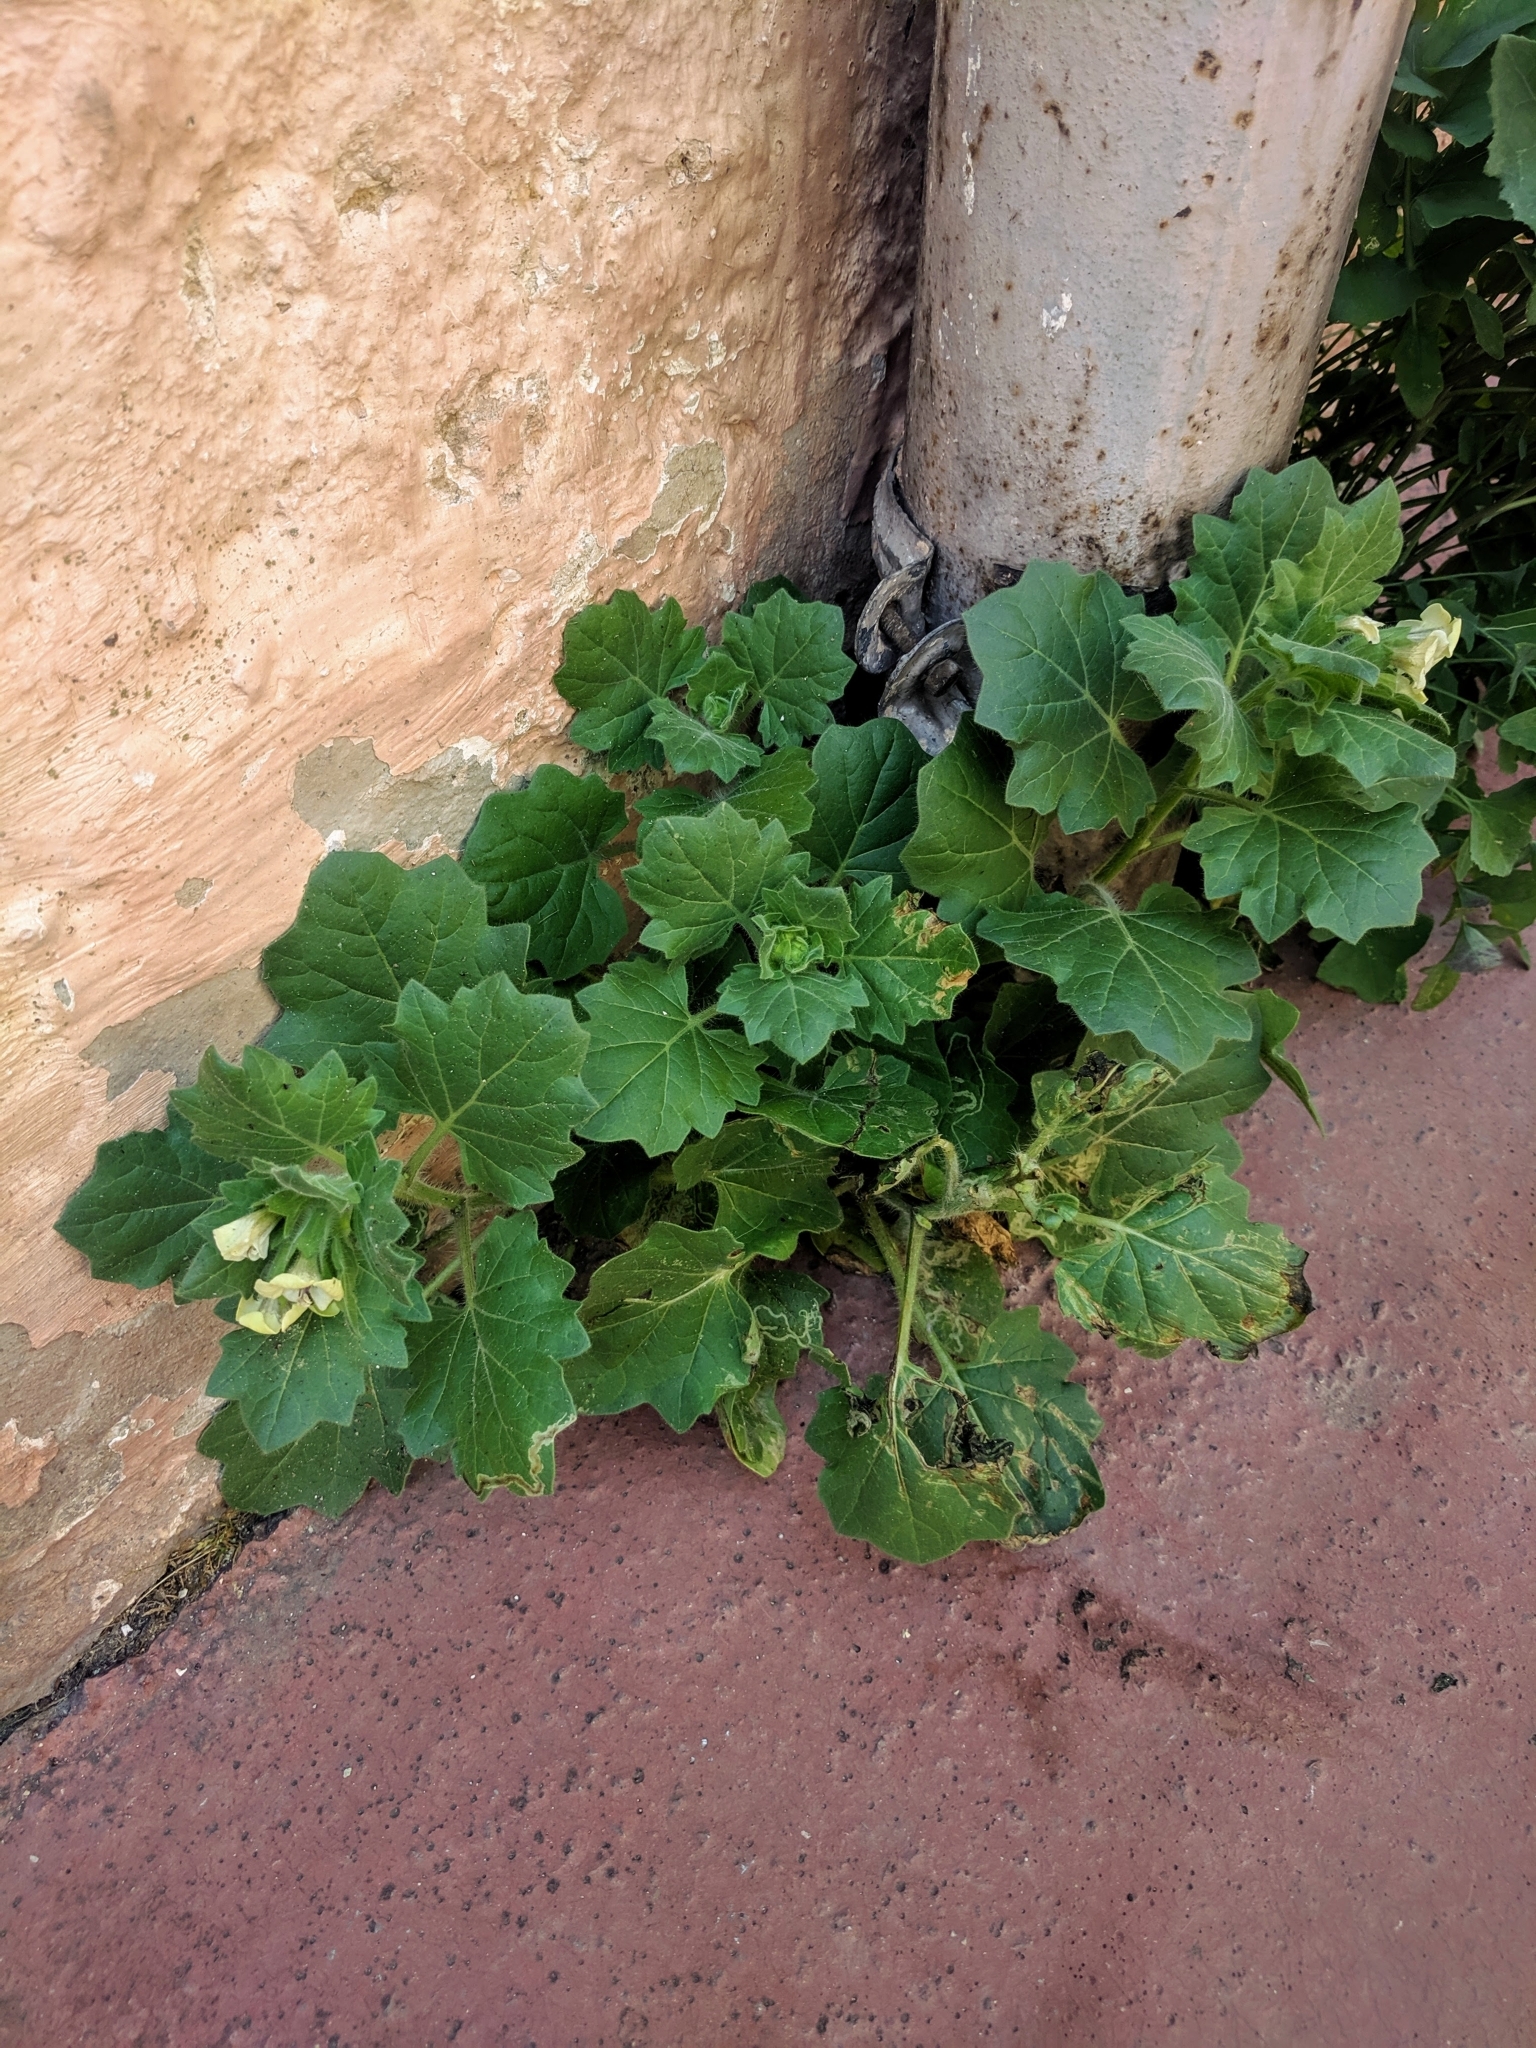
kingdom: Plantae
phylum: Tracheophyta
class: Magnoliopsida
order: Solanales
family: Solanaceae
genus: Hyoscyamus
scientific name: Hyoscyamus albus
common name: White henbane
